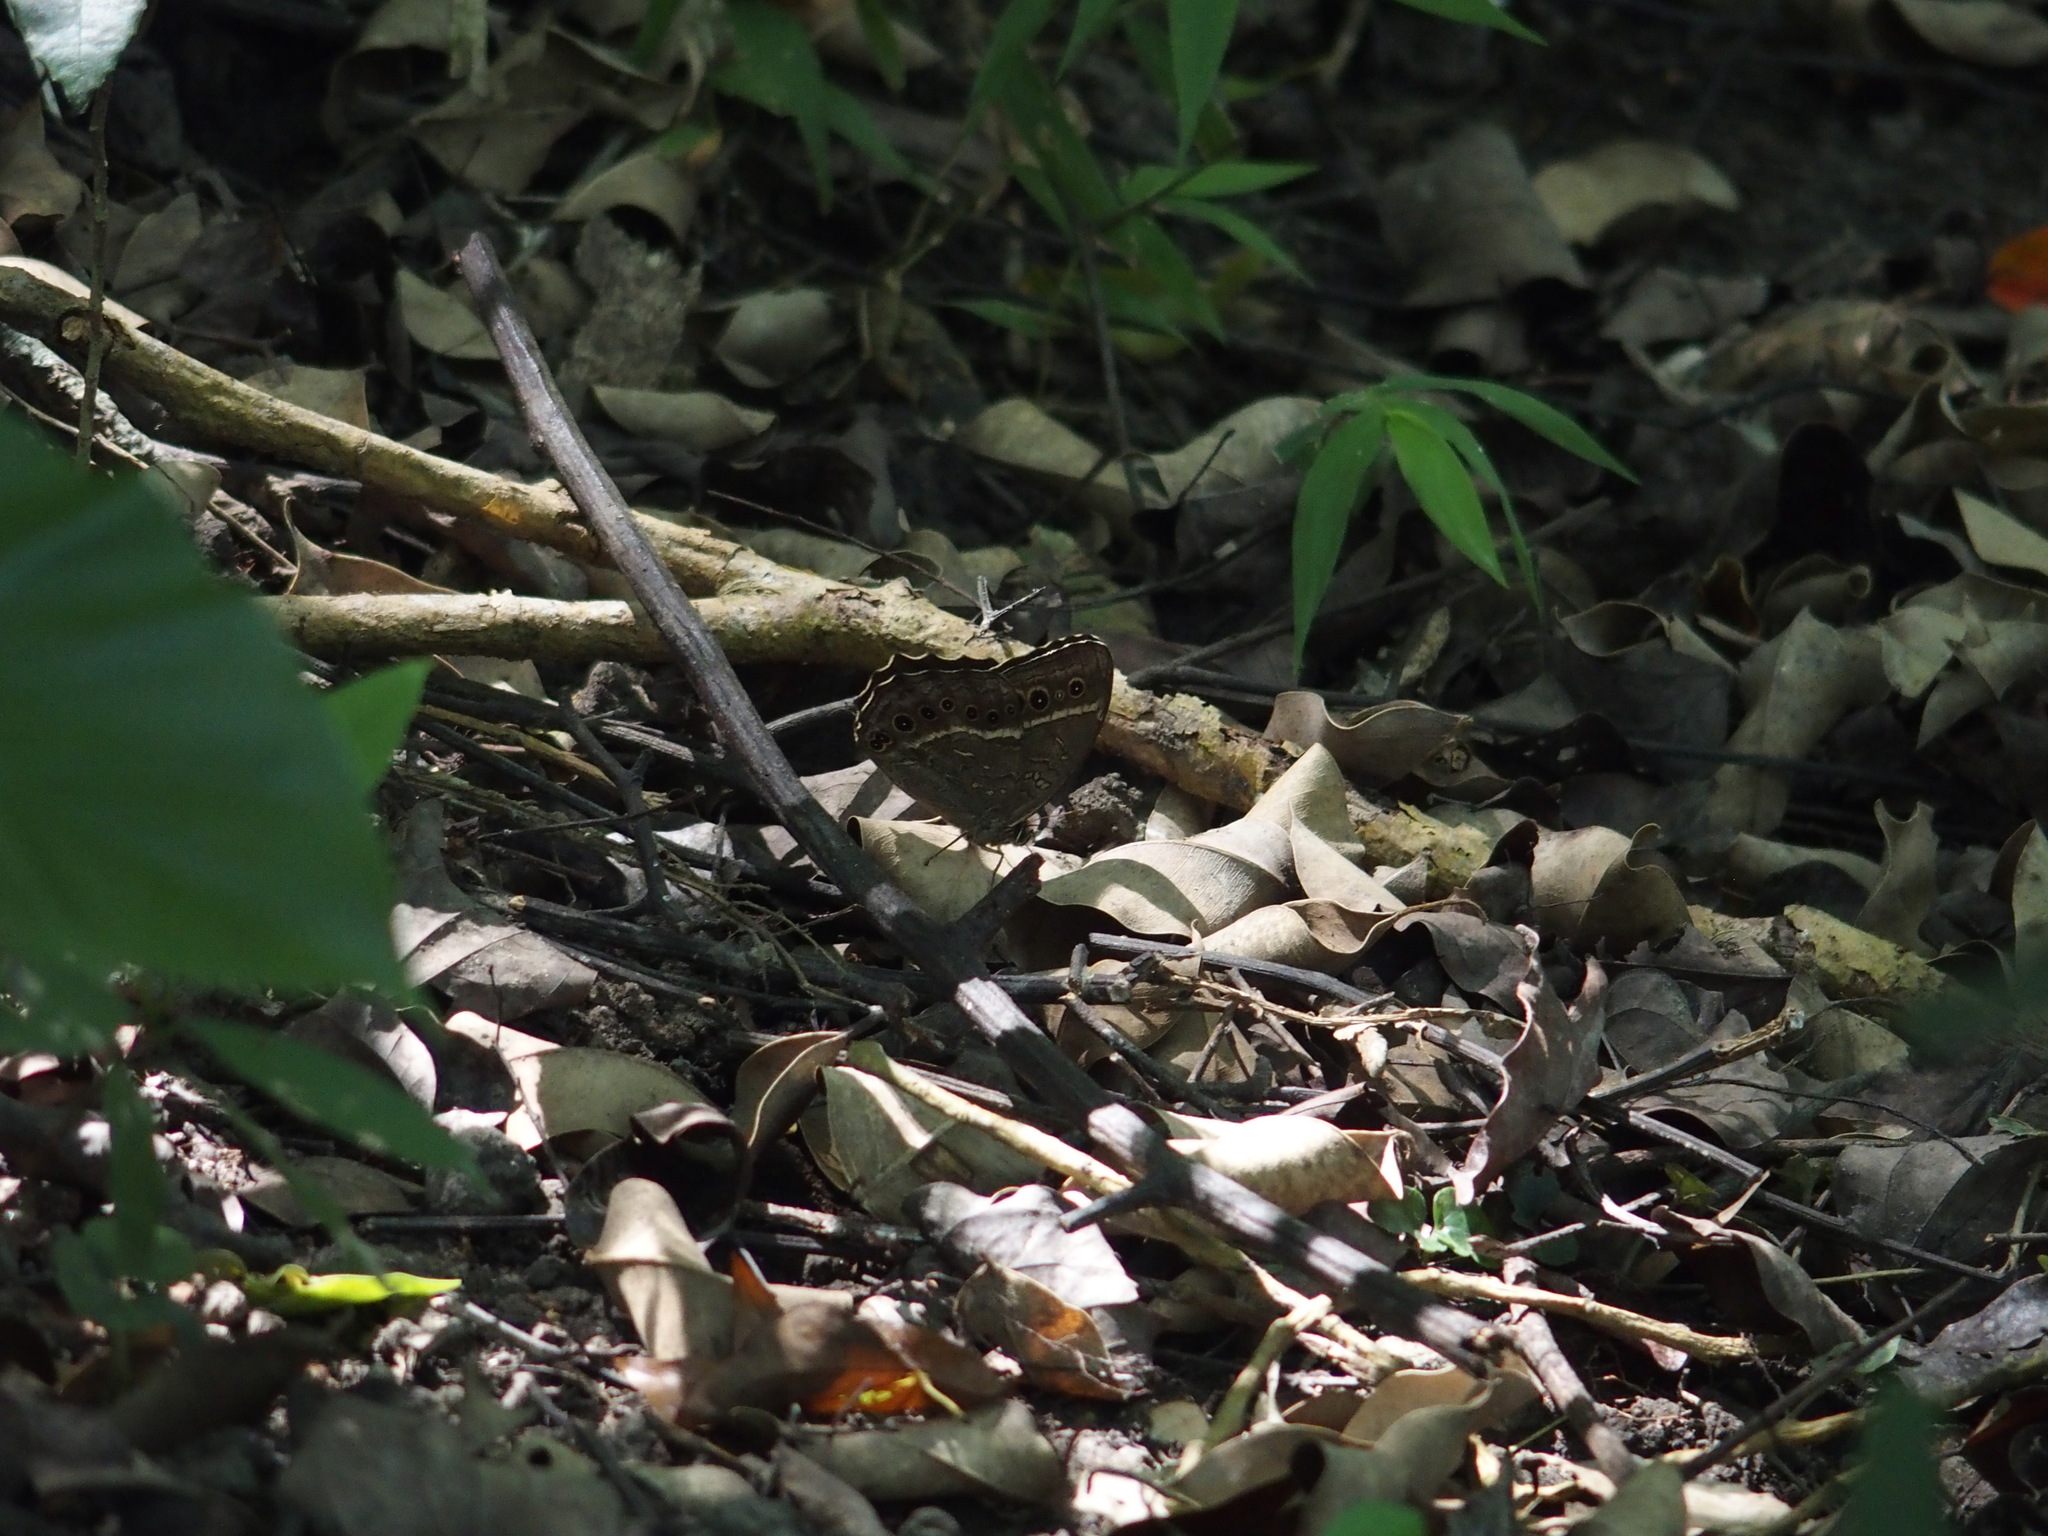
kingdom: Animalia
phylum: Arthropoda
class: Insecta
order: Lepidoptera
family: Nymphalidae
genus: Neope
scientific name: Neope muirheadii
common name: Black-spotted labyrinth
